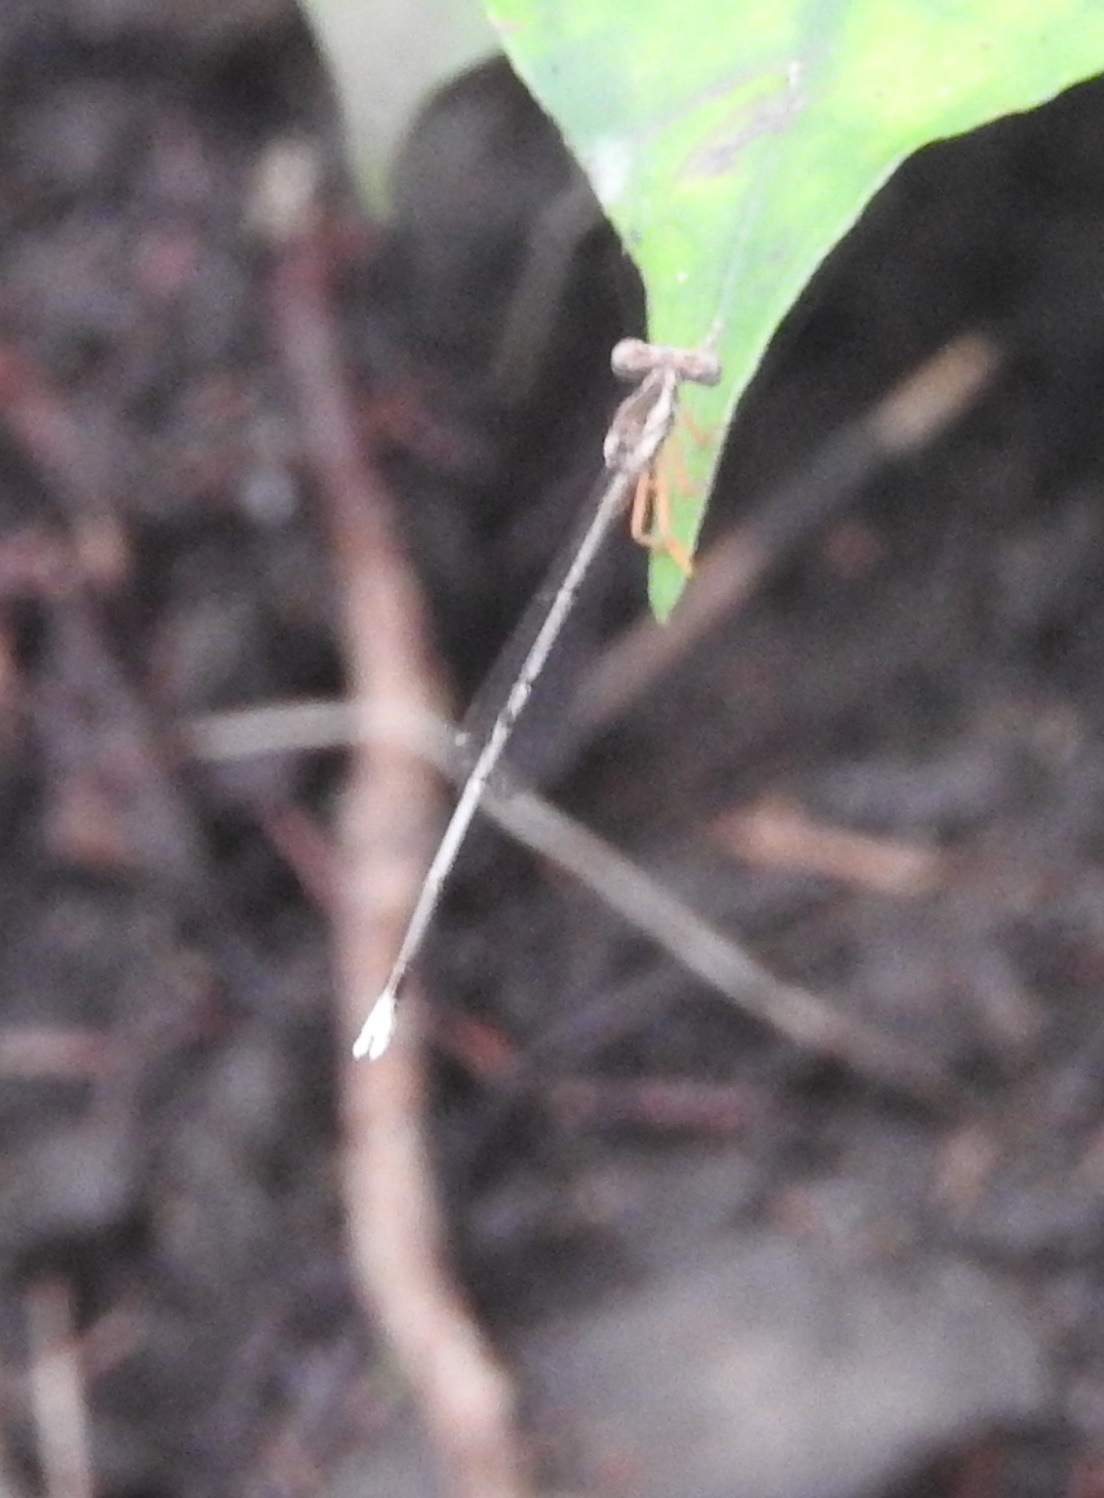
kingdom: Animalia
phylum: Arthropoda
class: Insecta
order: Odonata
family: Platycnemididae
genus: Copera
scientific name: Copera marginipes
